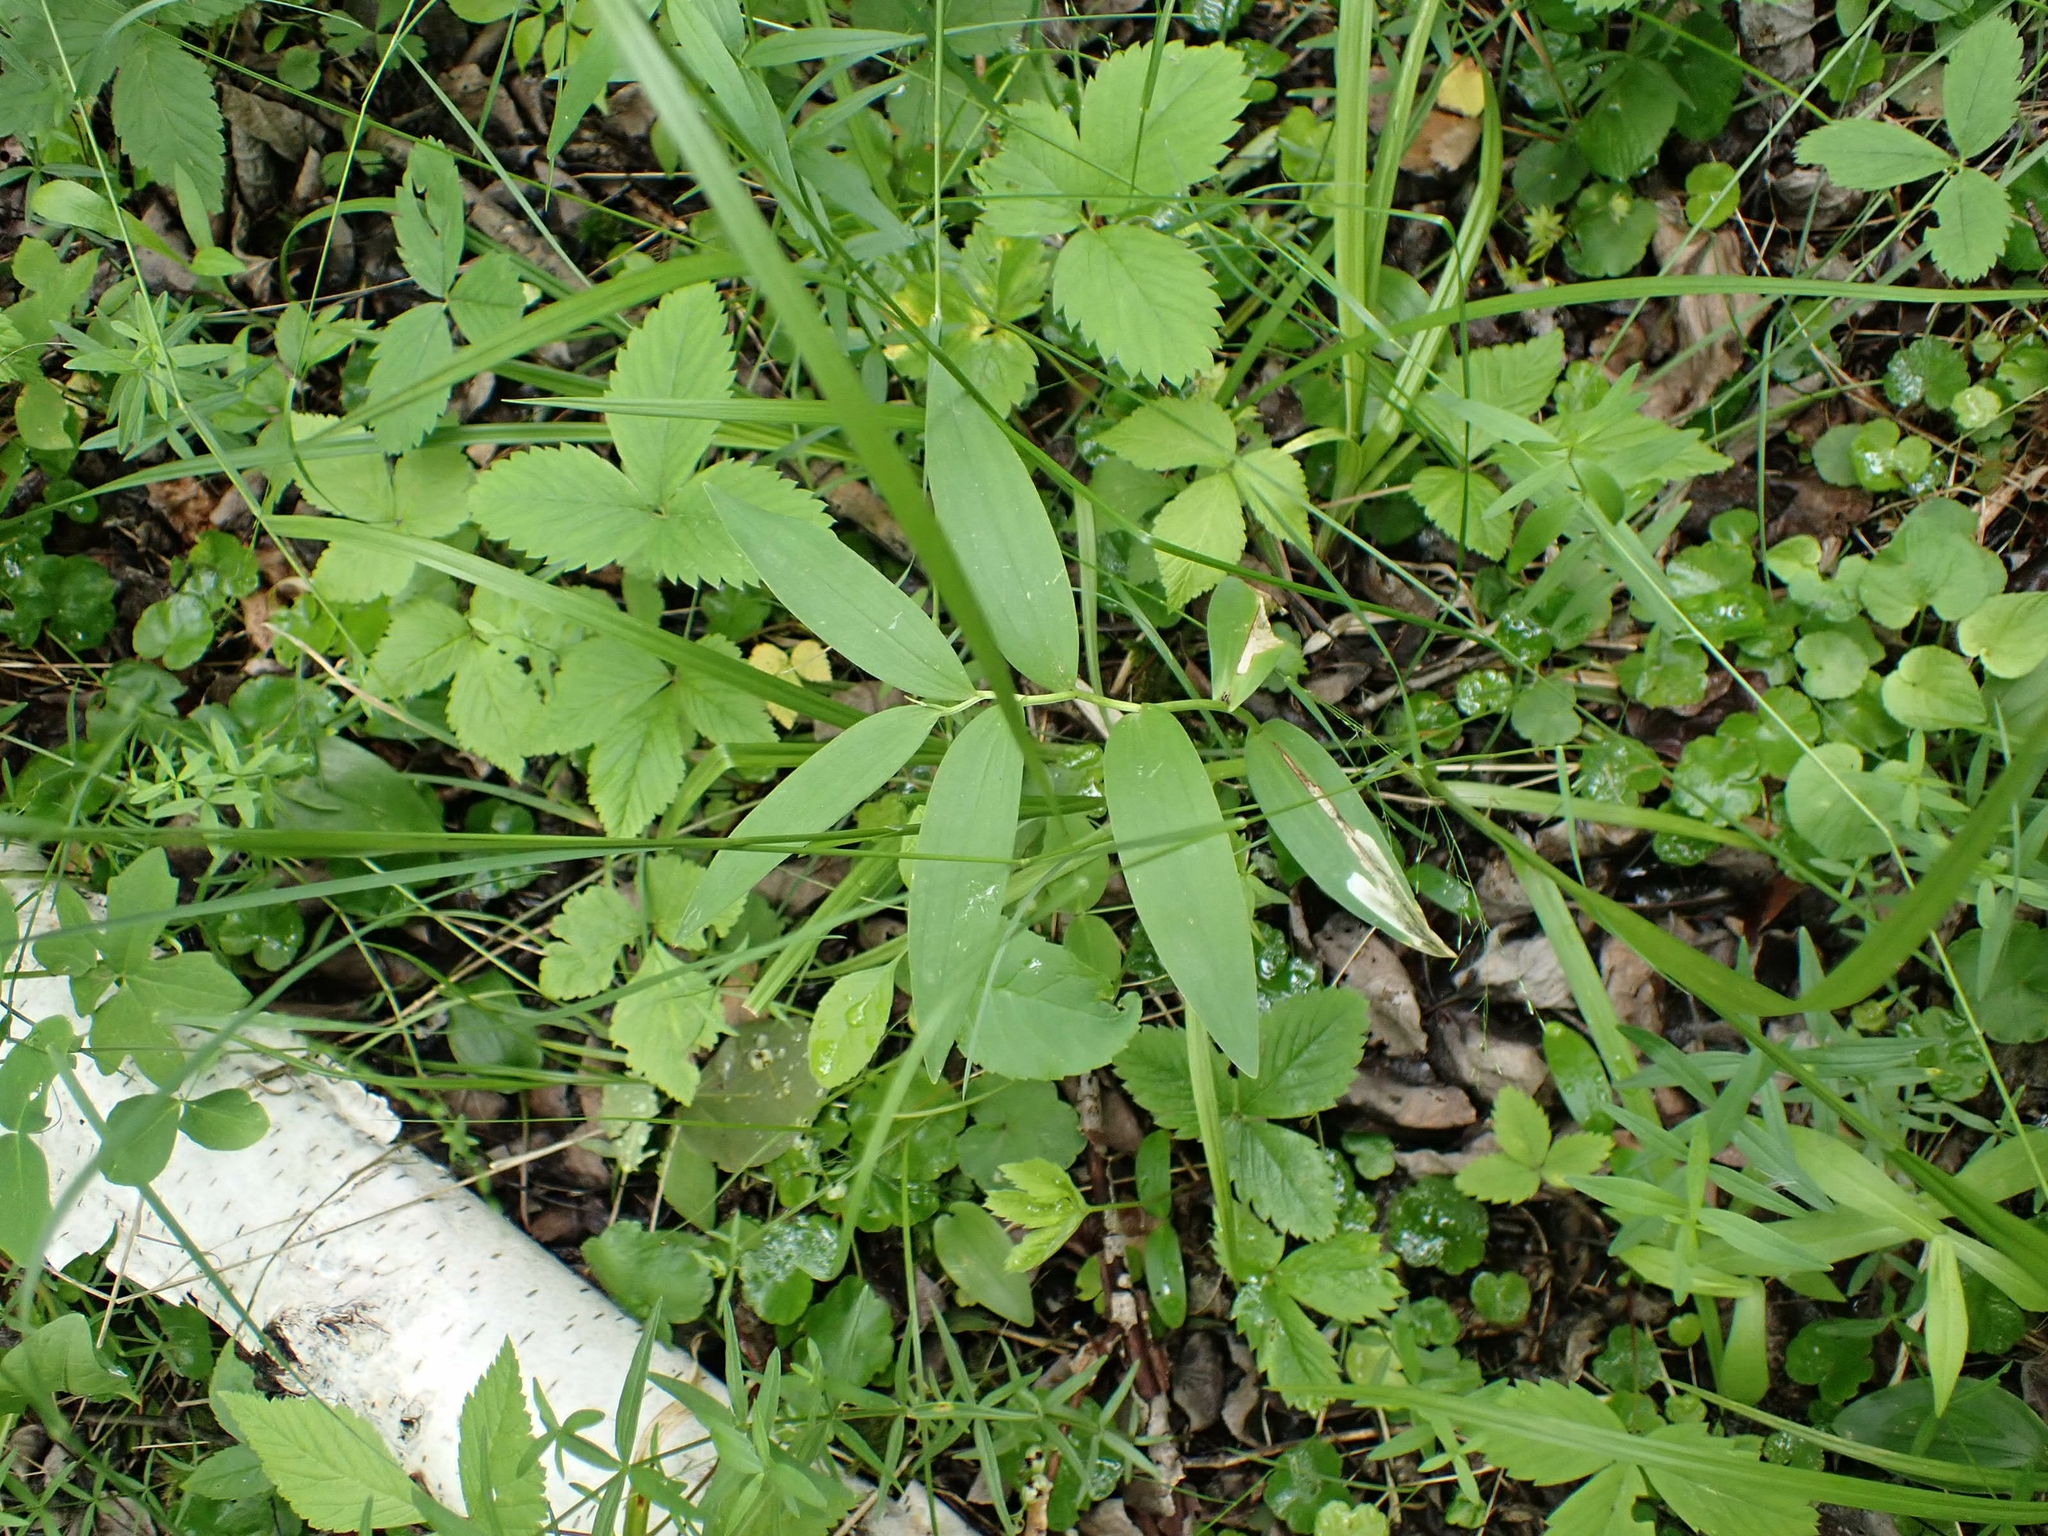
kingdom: Plantae
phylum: Tracheophyta
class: Liliopsida
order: Asparagales
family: Asparagaceae
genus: Maianthemum
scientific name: Maianthemum stellatum
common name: Little false solomon's seal
